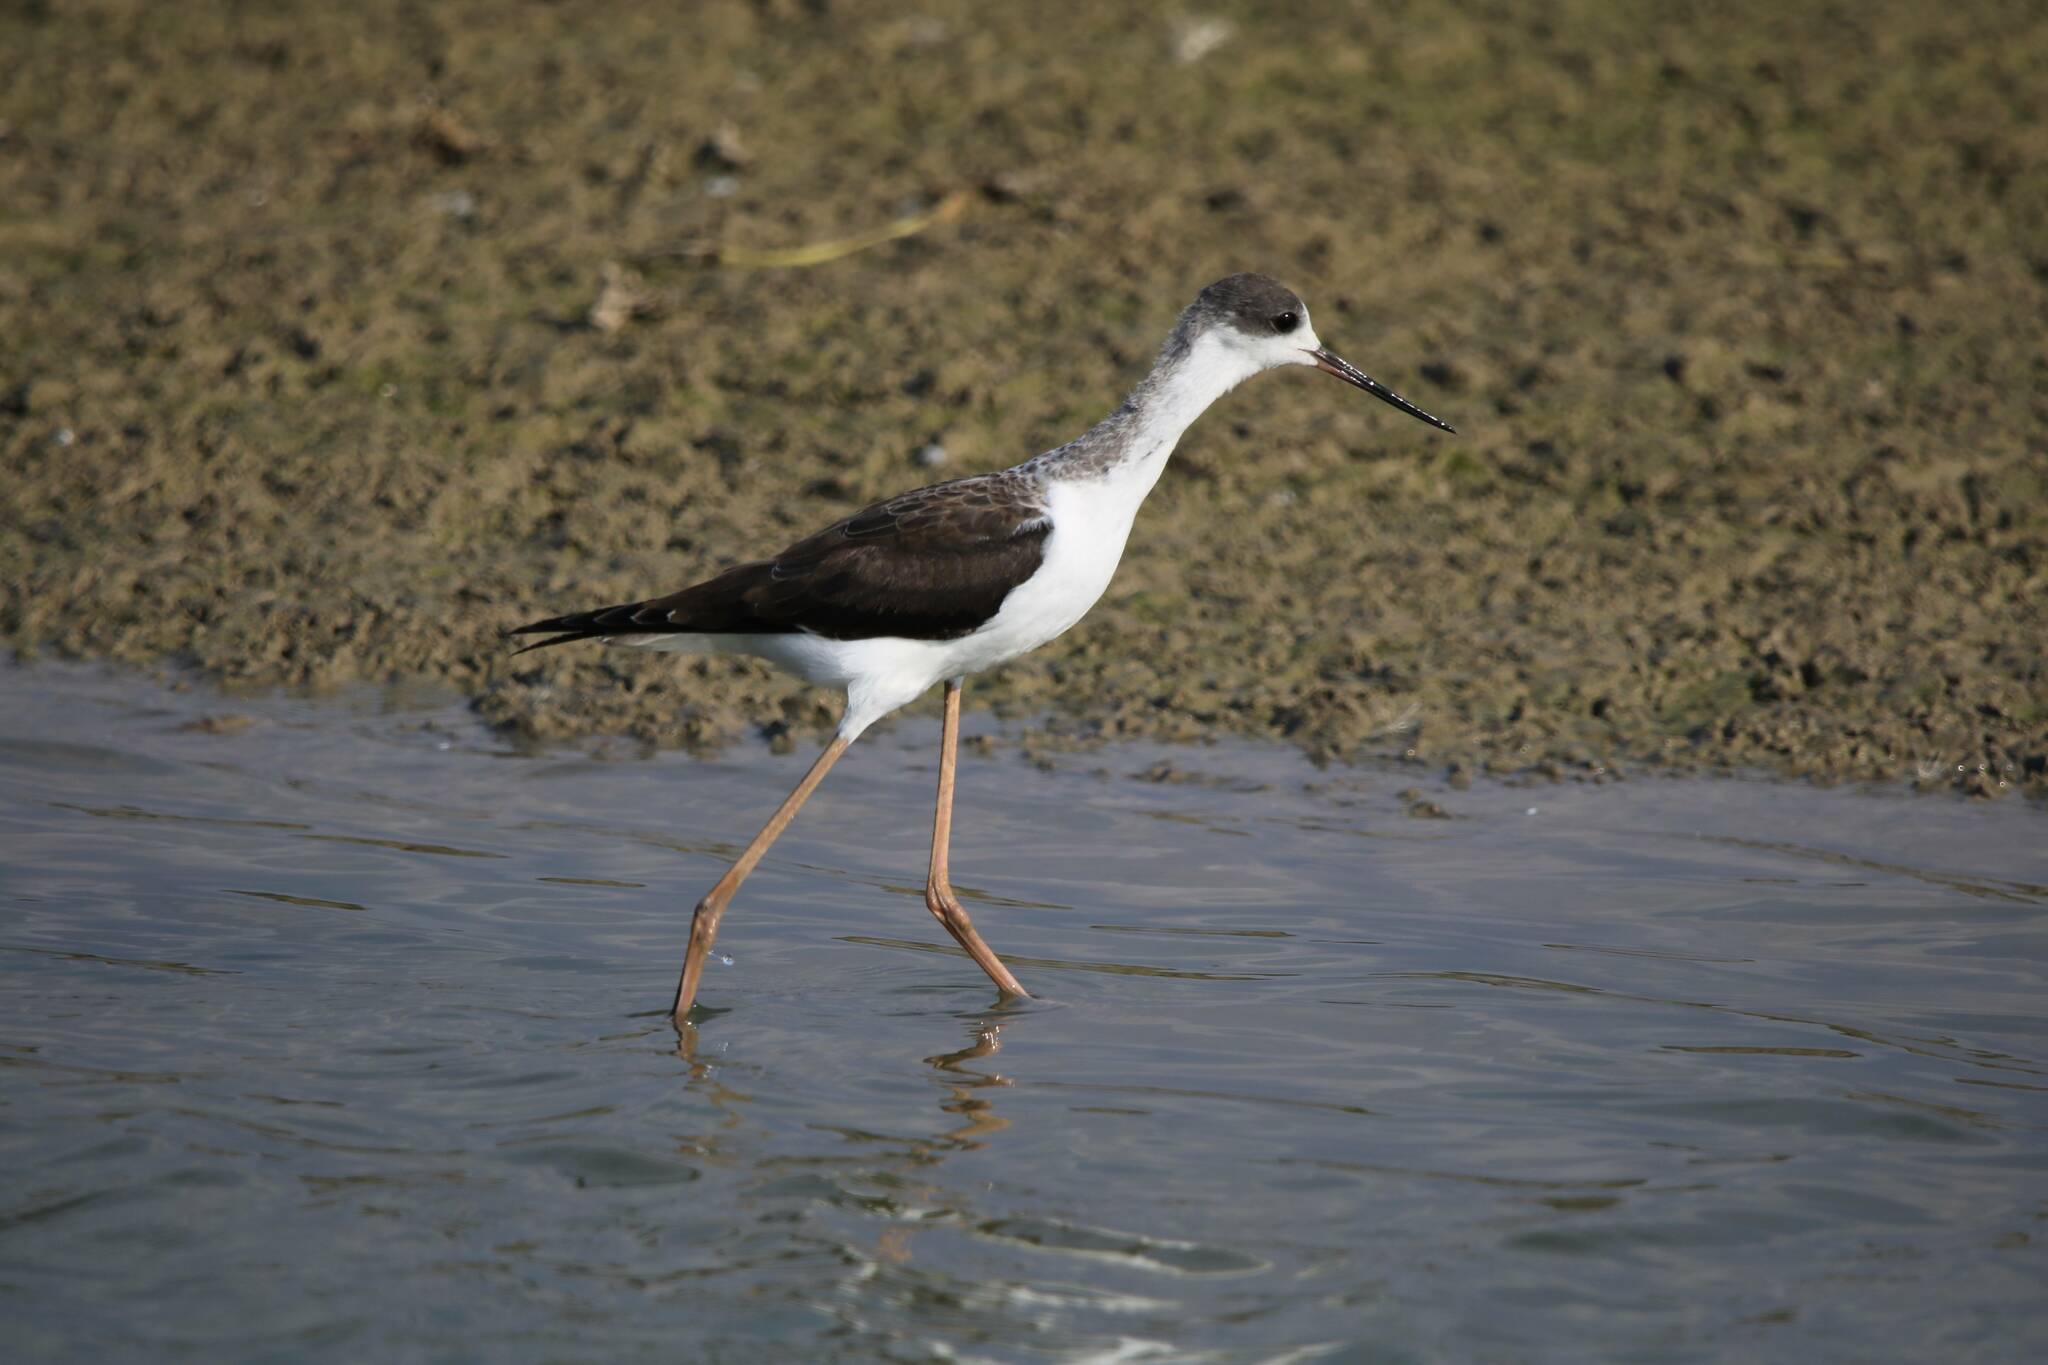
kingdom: Animalia
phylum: Chordata
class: Aves
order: Charadriiformes
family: Recurvirostridae
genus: Himantopus
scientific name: Himantopus himantopus
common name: Black-winged stilt
